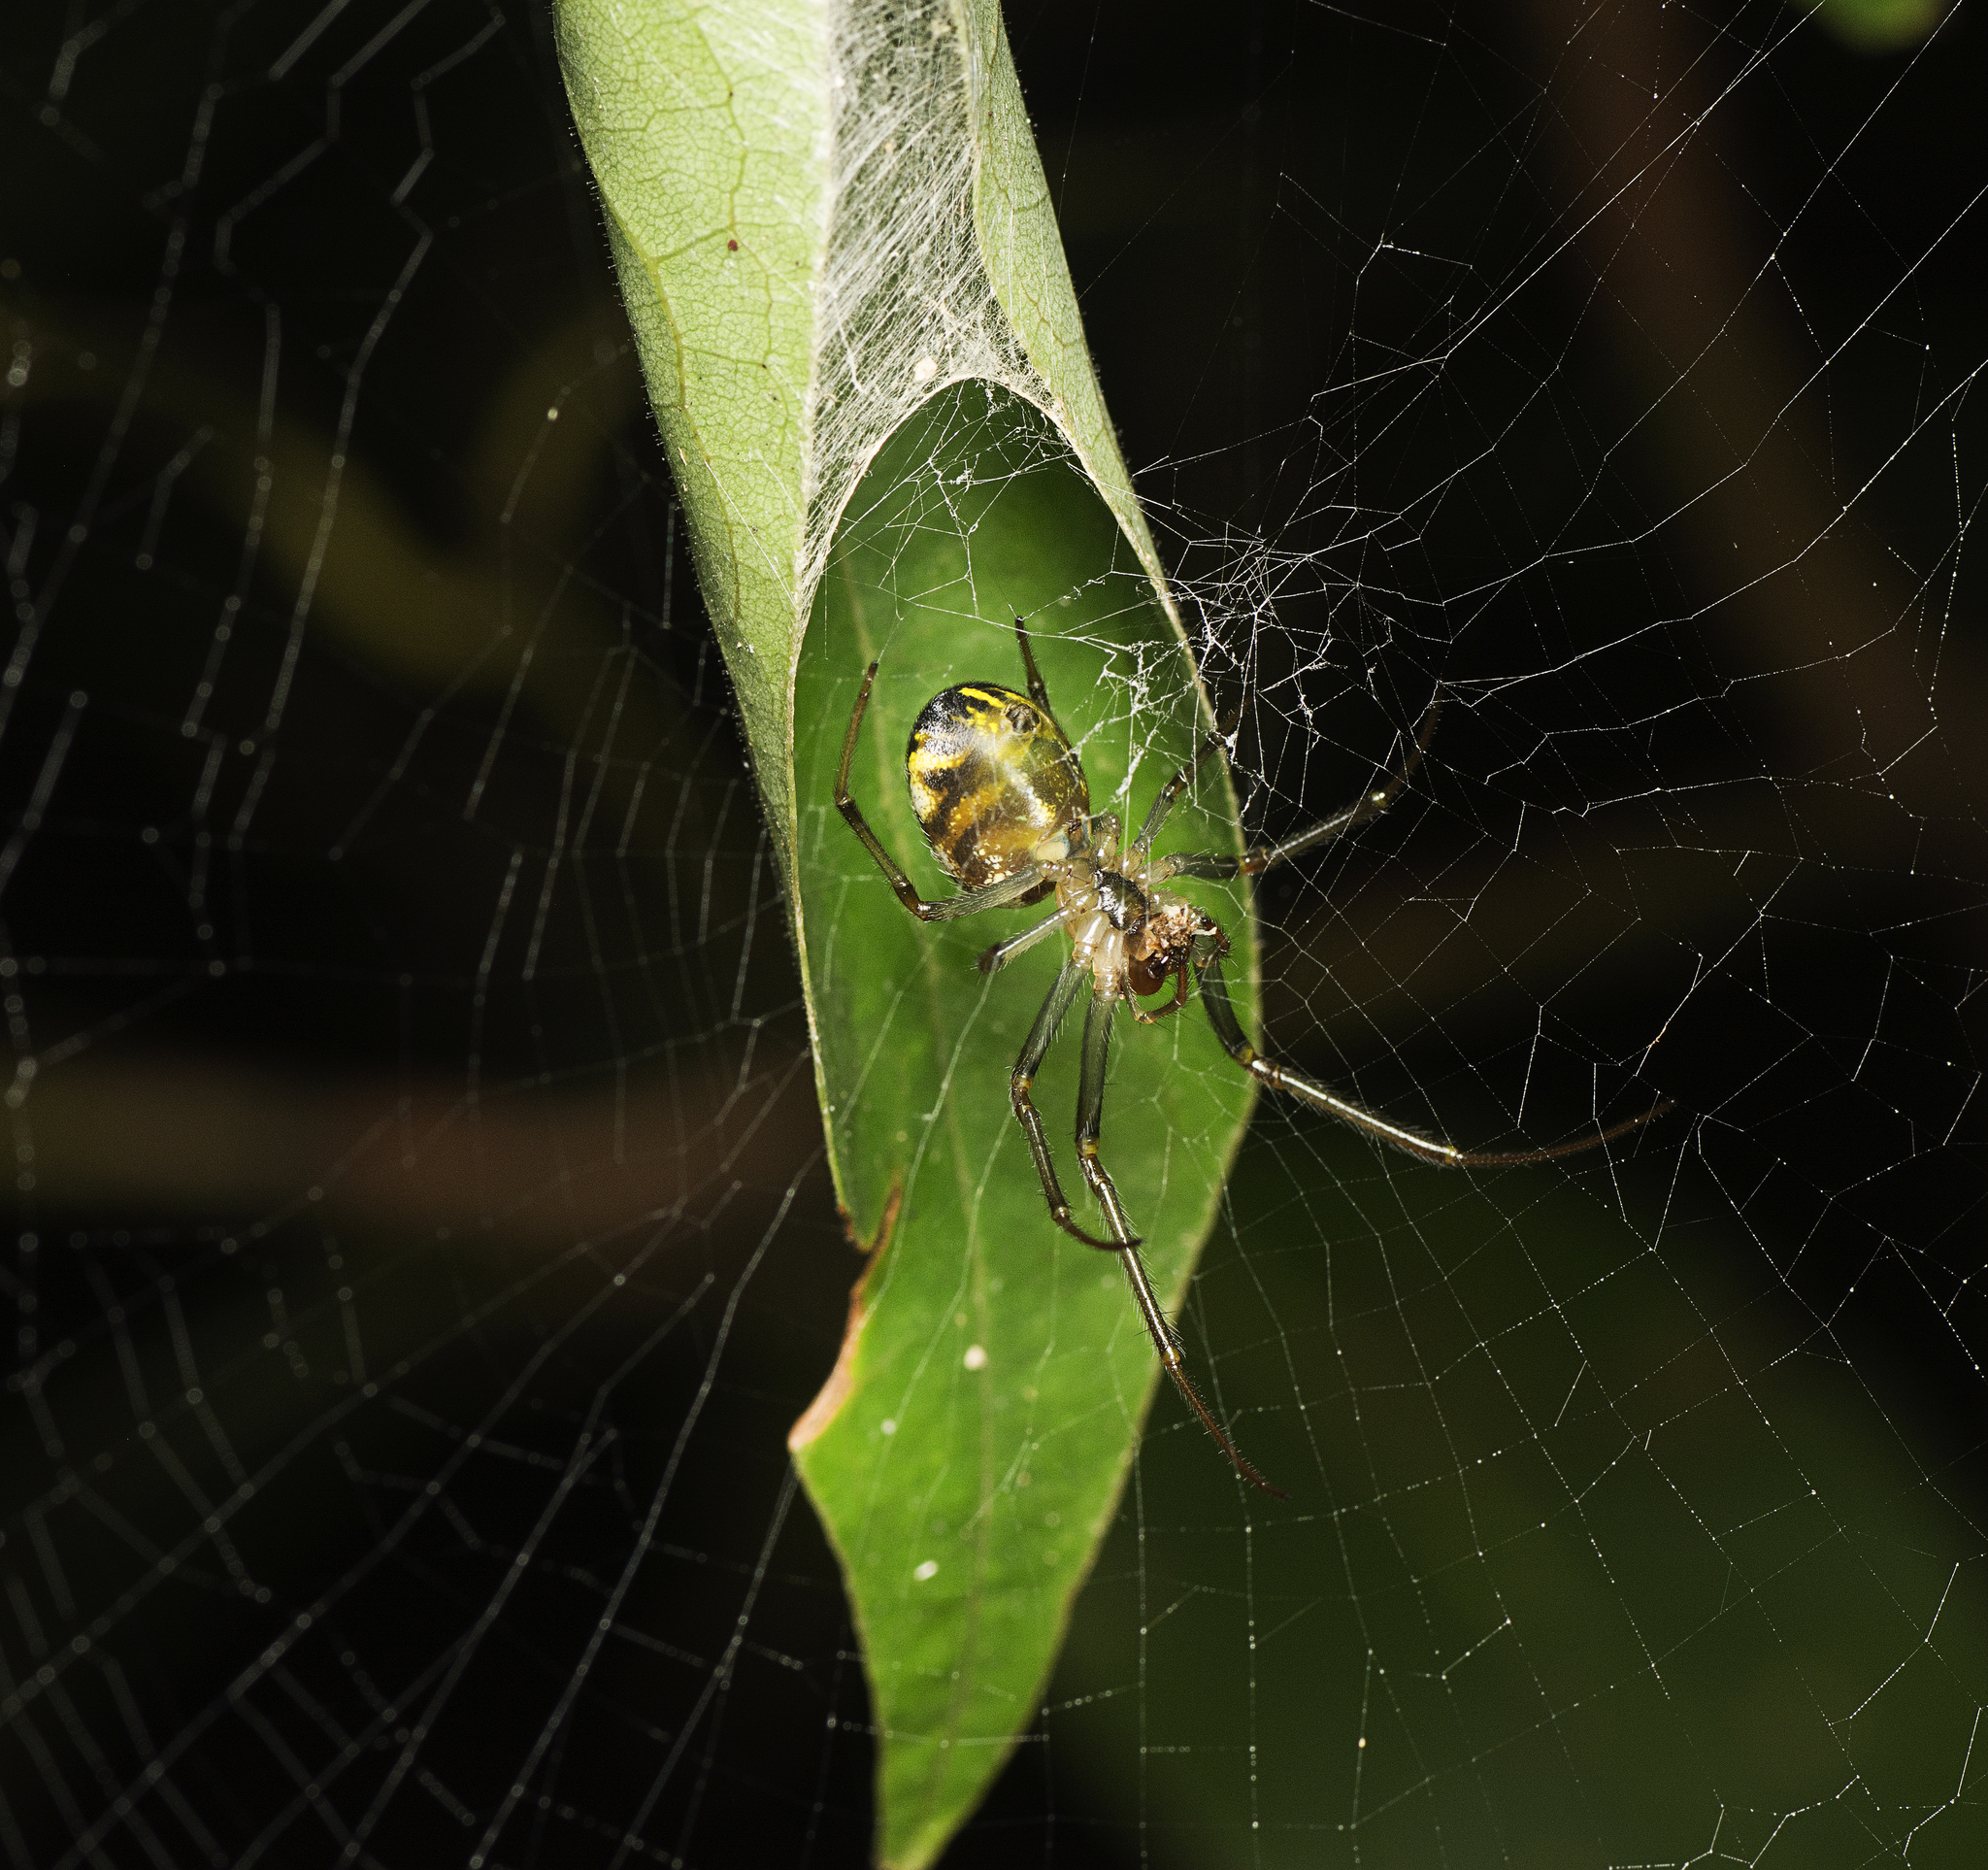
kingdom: Animalia
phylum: Arthropoda
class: Arachnida
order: Araneae
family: Araneidae
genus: Phonognatha
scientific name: Phonognatha graeffei
